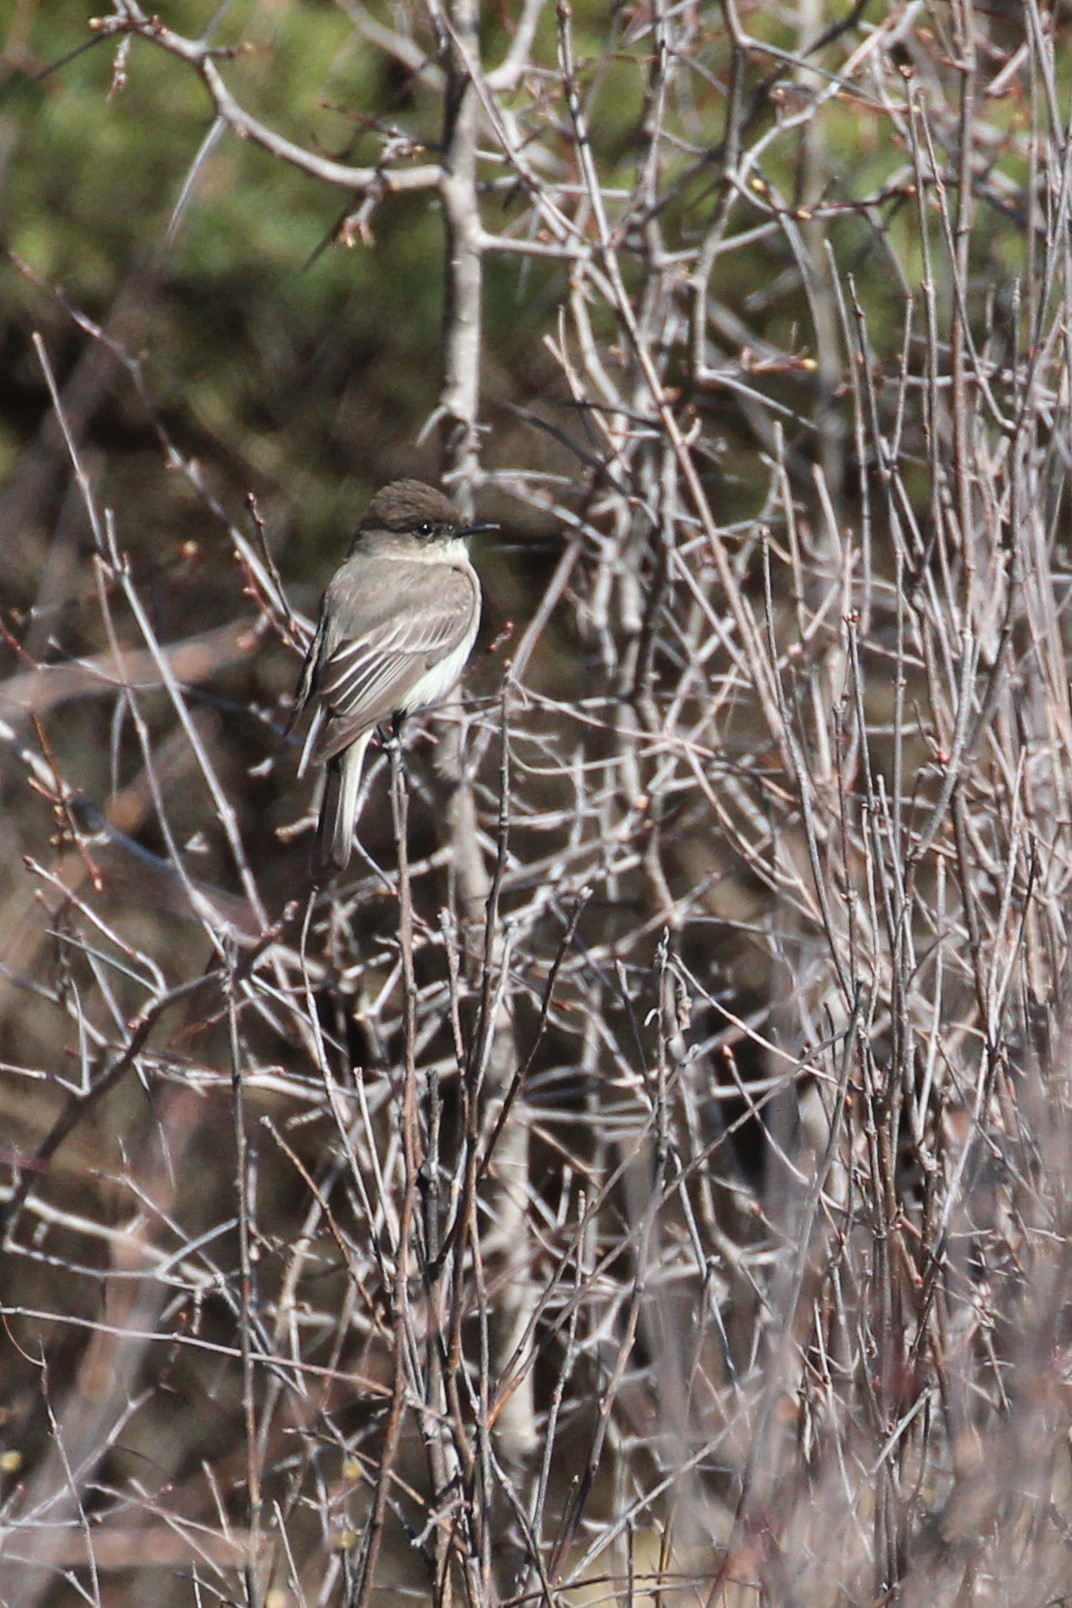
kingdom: Animalia
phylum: Chordata
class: Aves
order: Passeriformes
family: Tyrannidae
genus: Sayornis
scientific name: Sayornis phoebe
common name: Eastern phoebe
